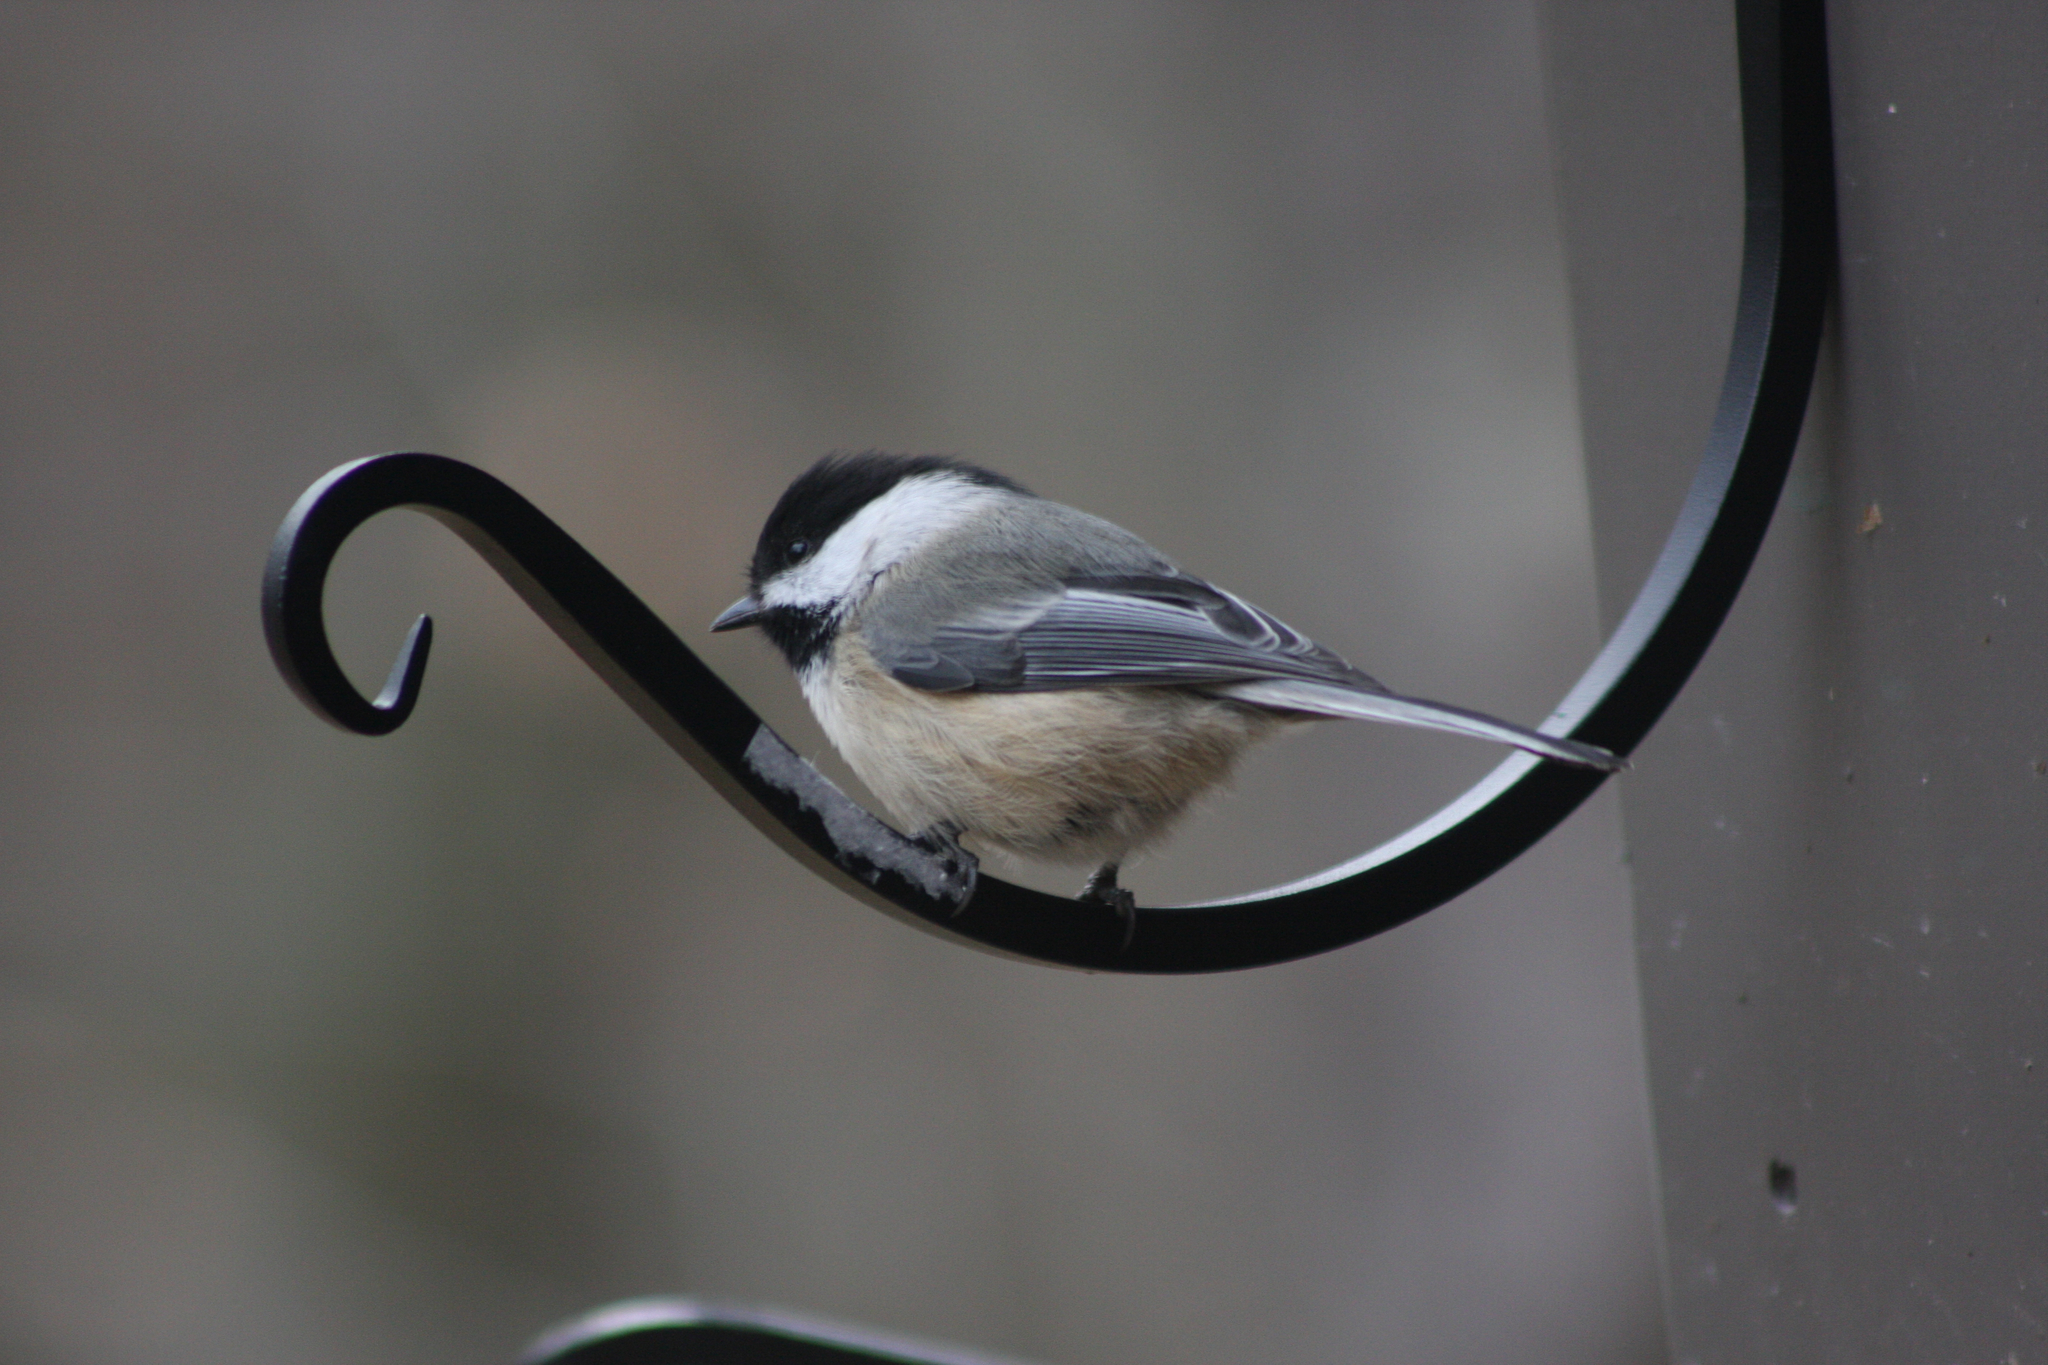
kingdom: Animalia
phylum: Chordata
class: Aves
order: Passeriformes
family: Paridae
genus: Poecile
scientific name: Poecile atricapillus
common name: Black-capped chickadee
